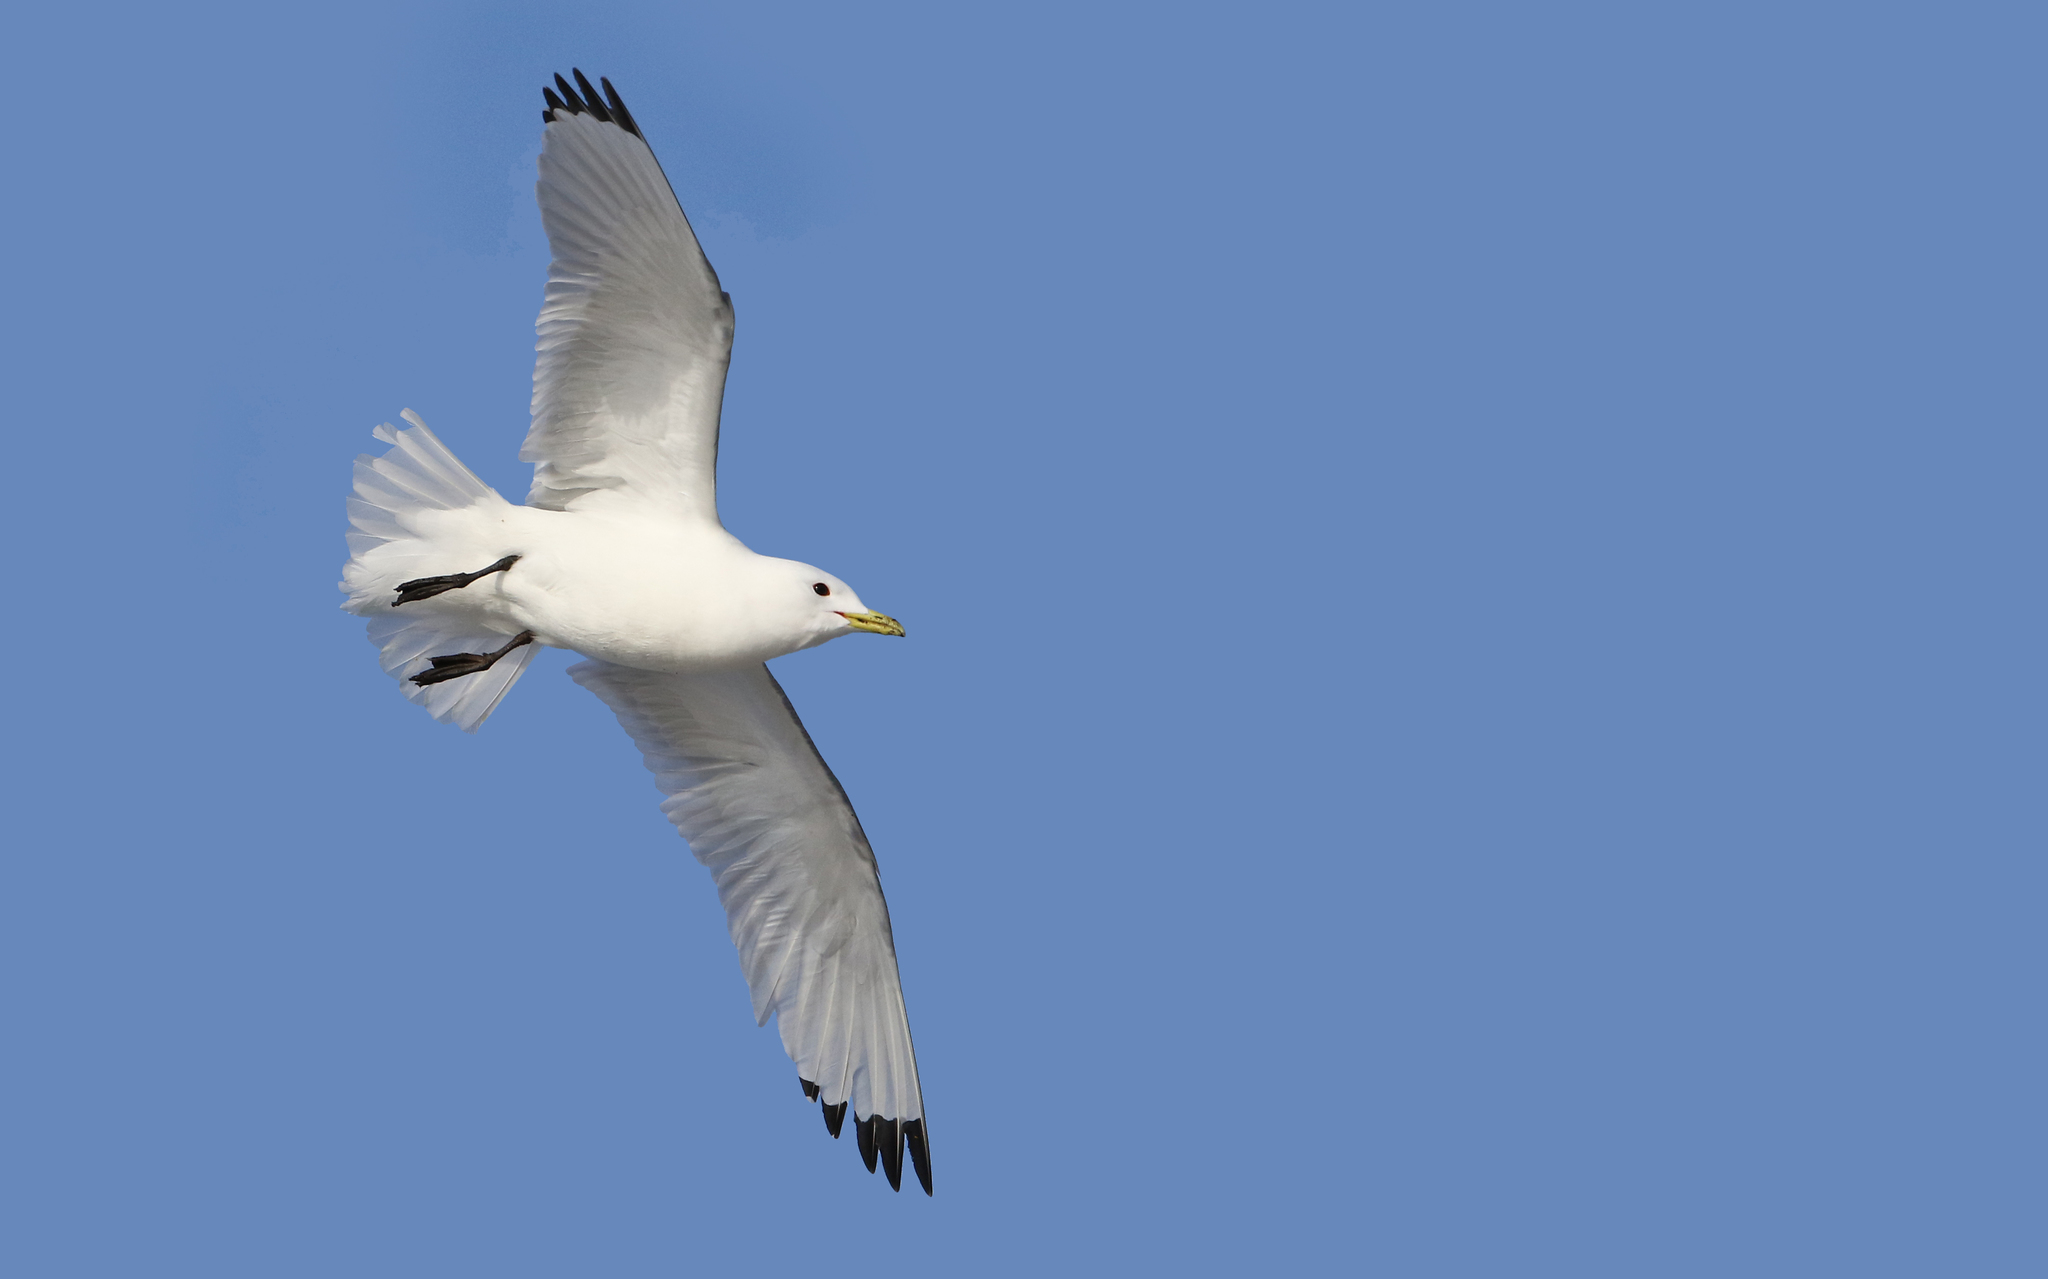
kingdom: Animalia
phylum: Chordata
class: Aves
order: Charadriiformes
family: Laridae
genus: Rissa
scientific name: Rissa tridactyla
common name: Black-legged kittiwake
